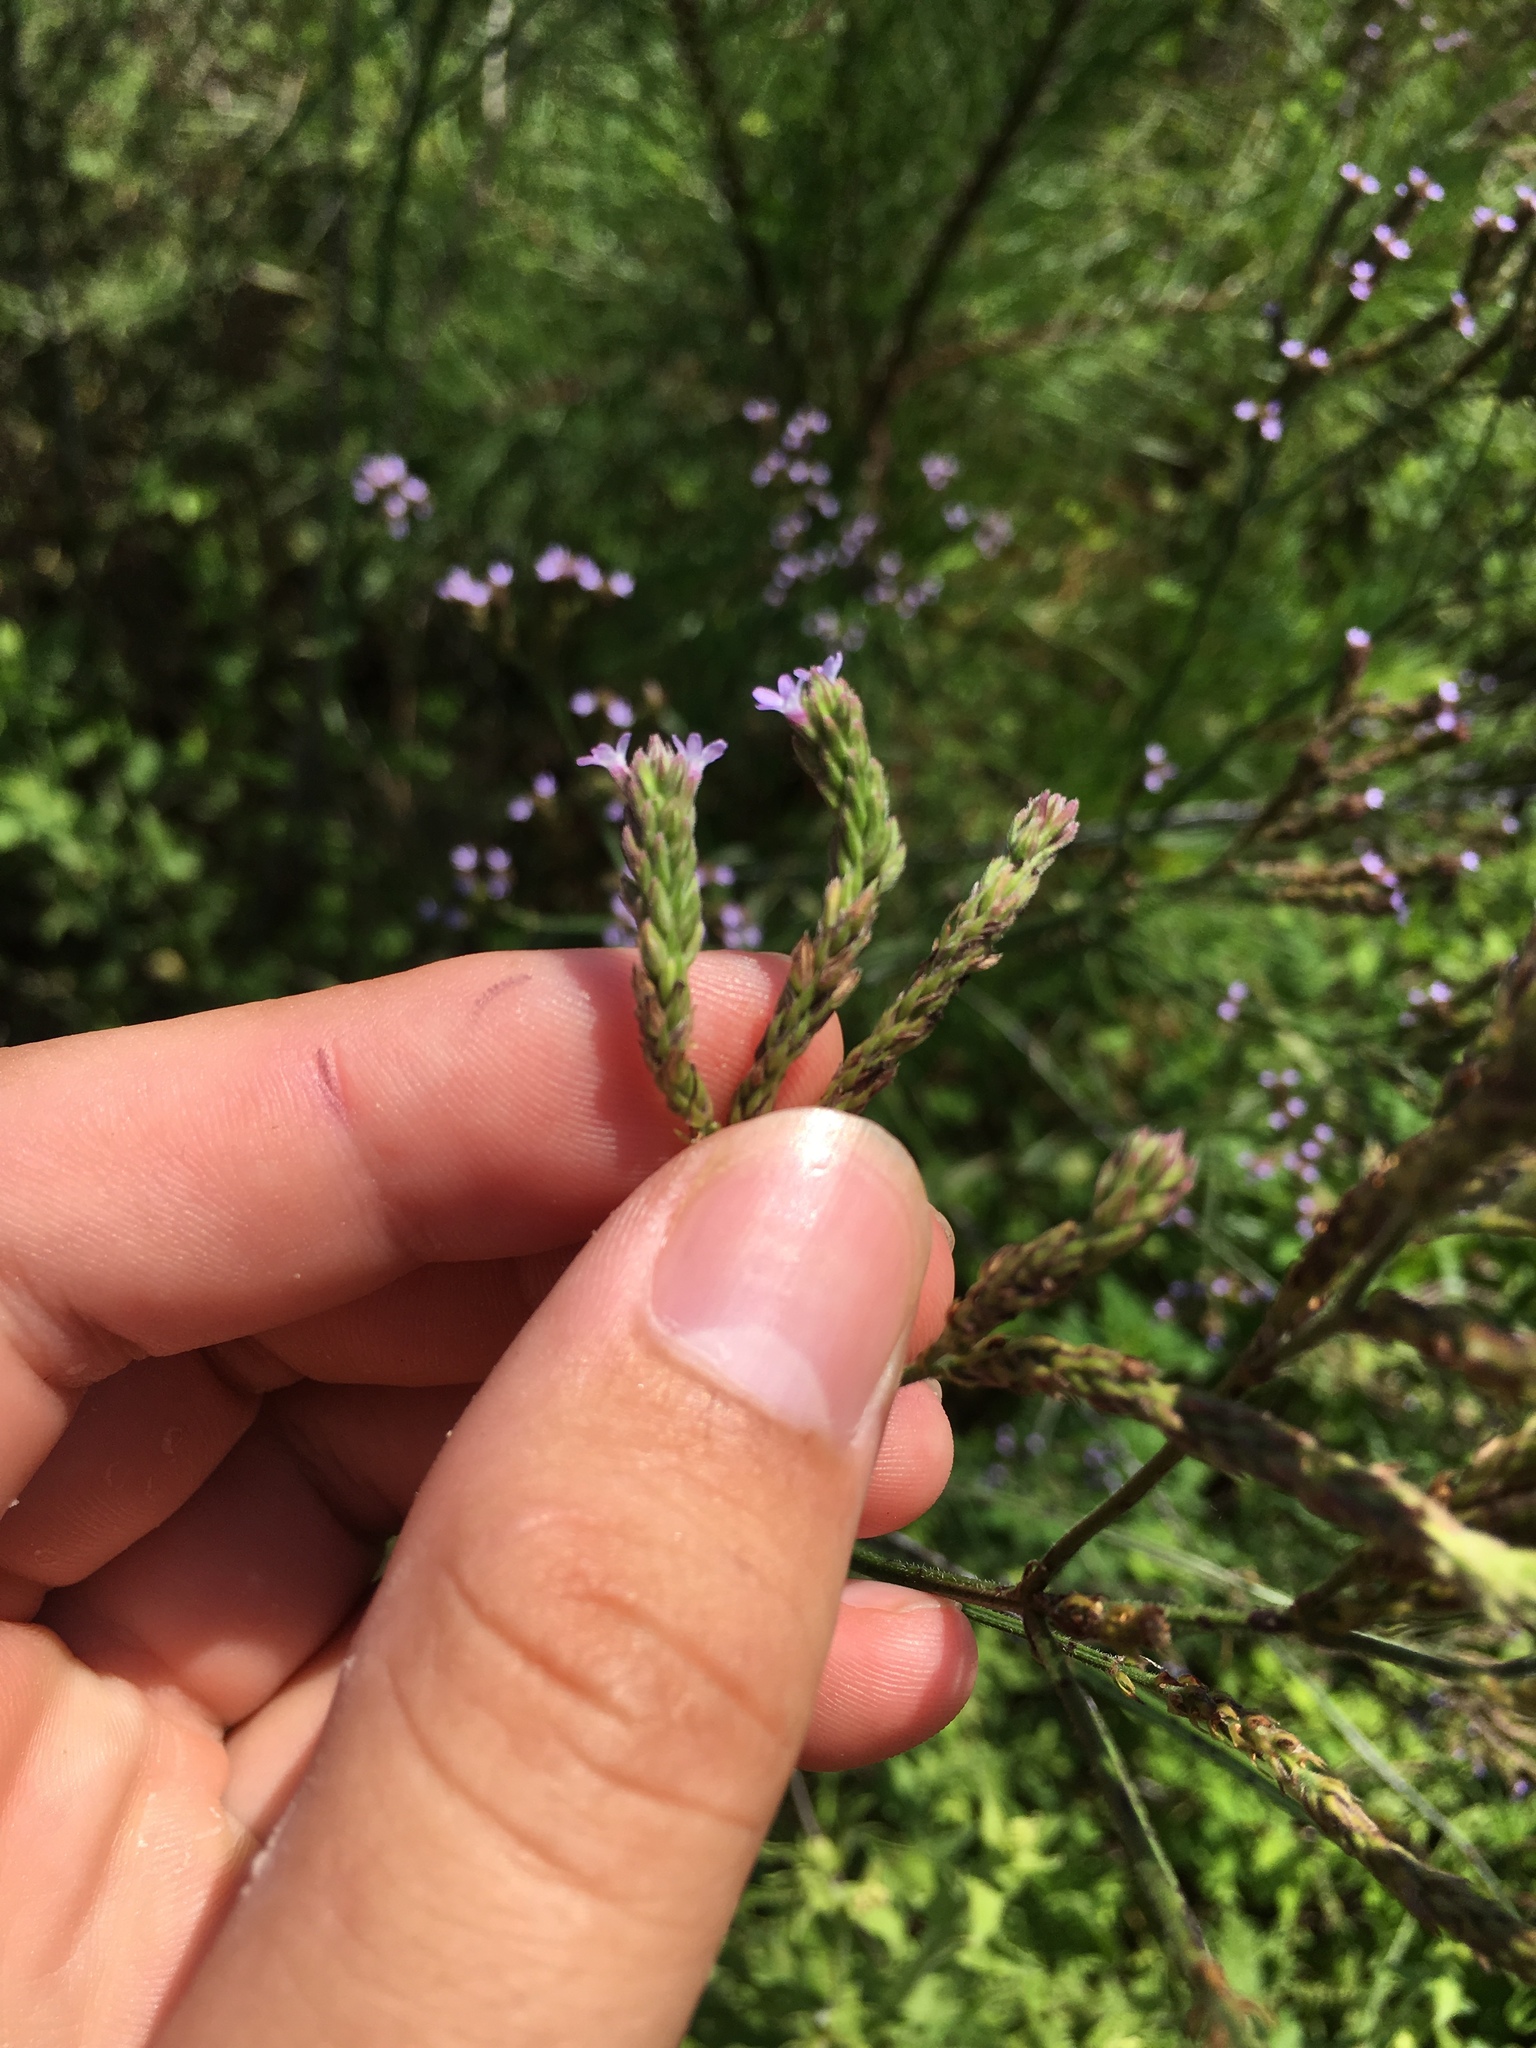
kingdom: Plantae
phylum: Tracheophyta
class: Magnoliopsida
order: Lamiales
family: Verbenaceae
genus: Verbena
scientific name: Verbena brasiliensis
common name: Brazilian vervain
